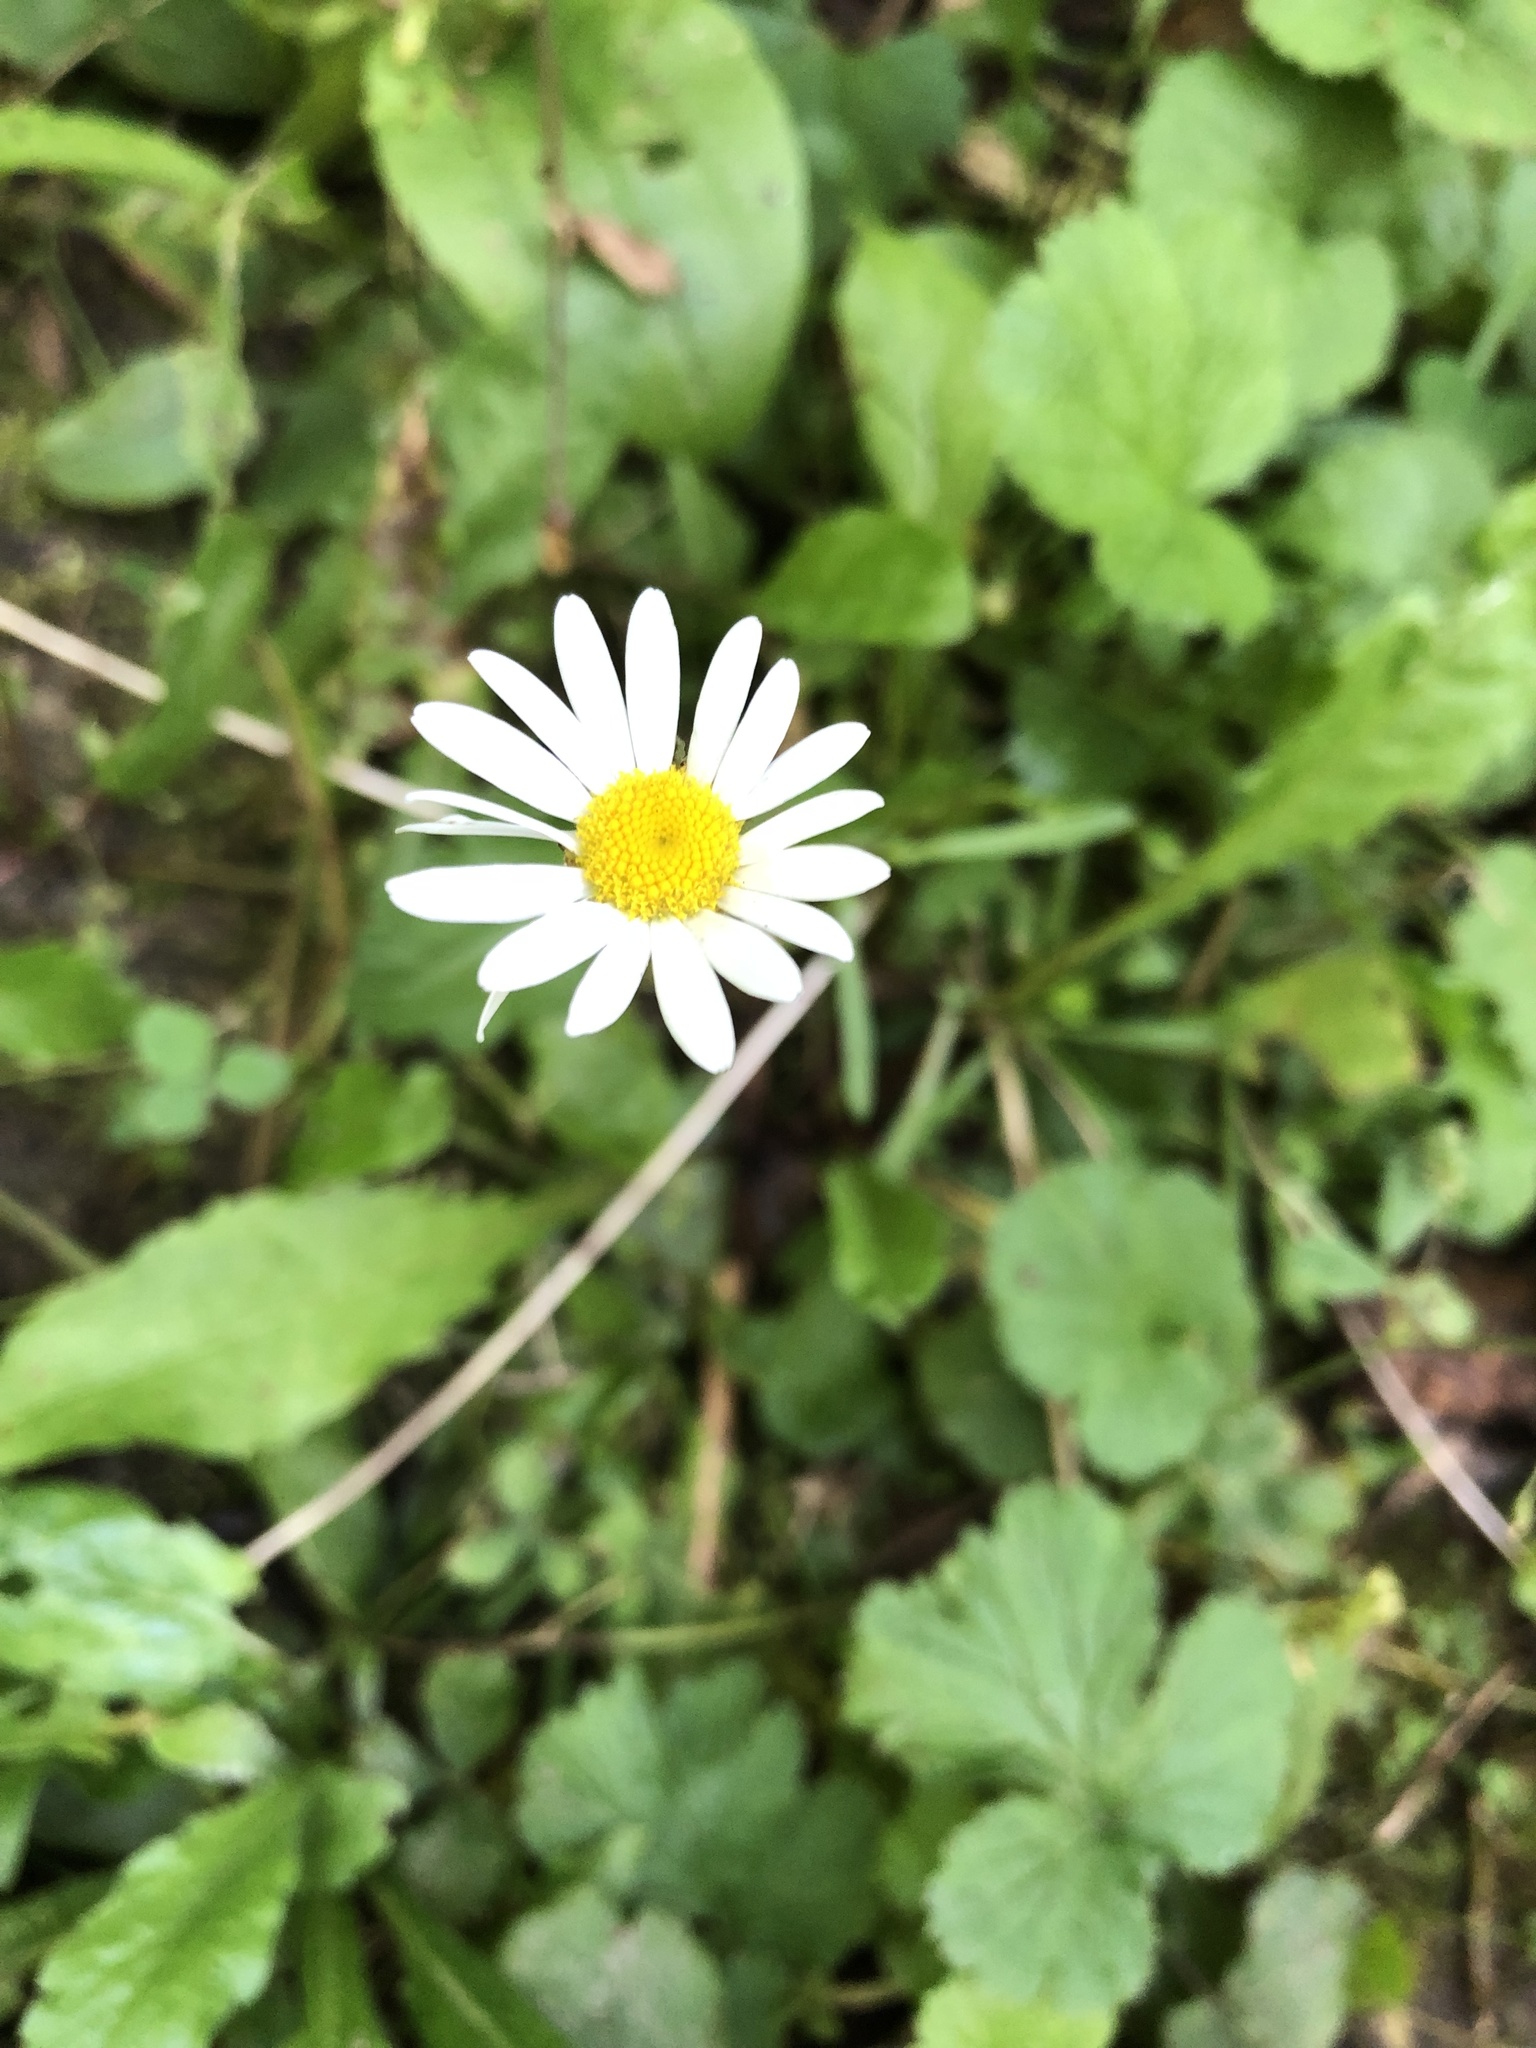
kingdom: Plantae
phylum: Tracheophyta
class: Magnoliopsida
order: Asterales
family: Asteraceae
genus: Leucanthemum
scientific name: Leucanthemum vulgare
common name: Oxeye daisy
